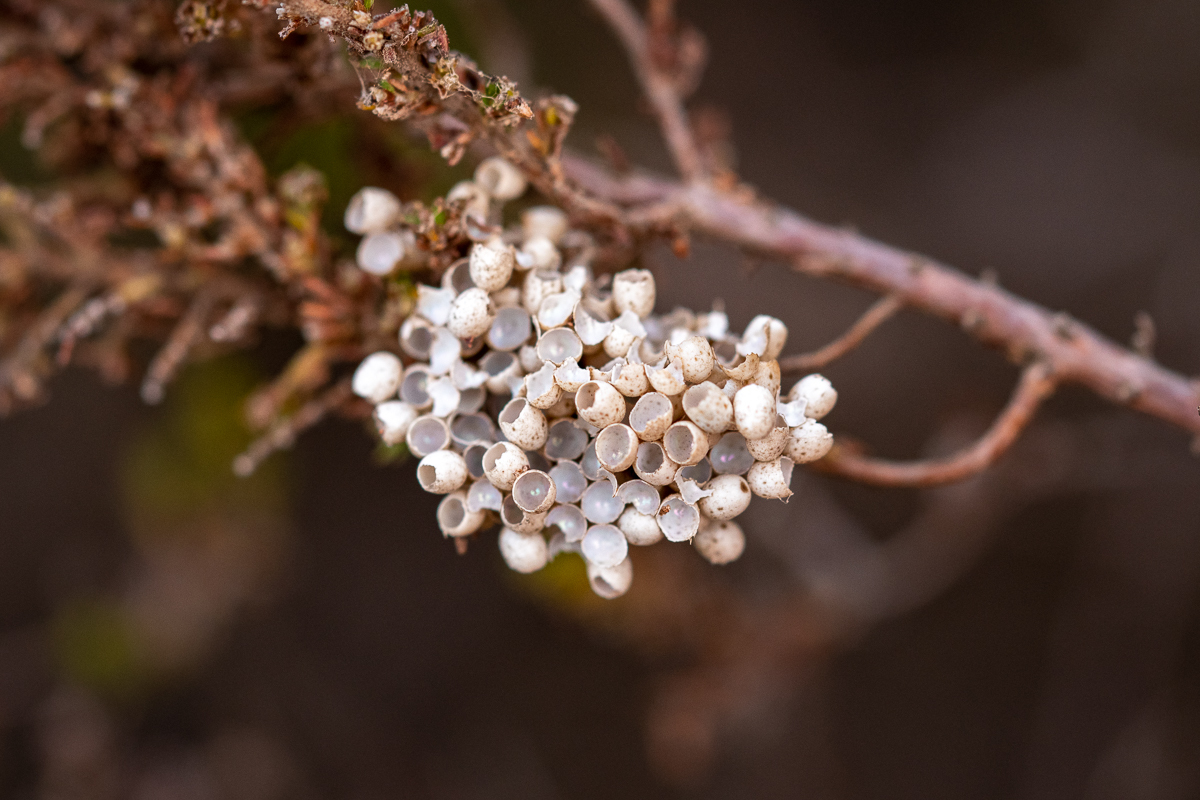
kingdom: Animalia
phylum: Arthropoda
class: Insecta
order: Lepidoptera
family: Lasiocampidae
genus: Eutricha
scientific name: Eutricha capensis
